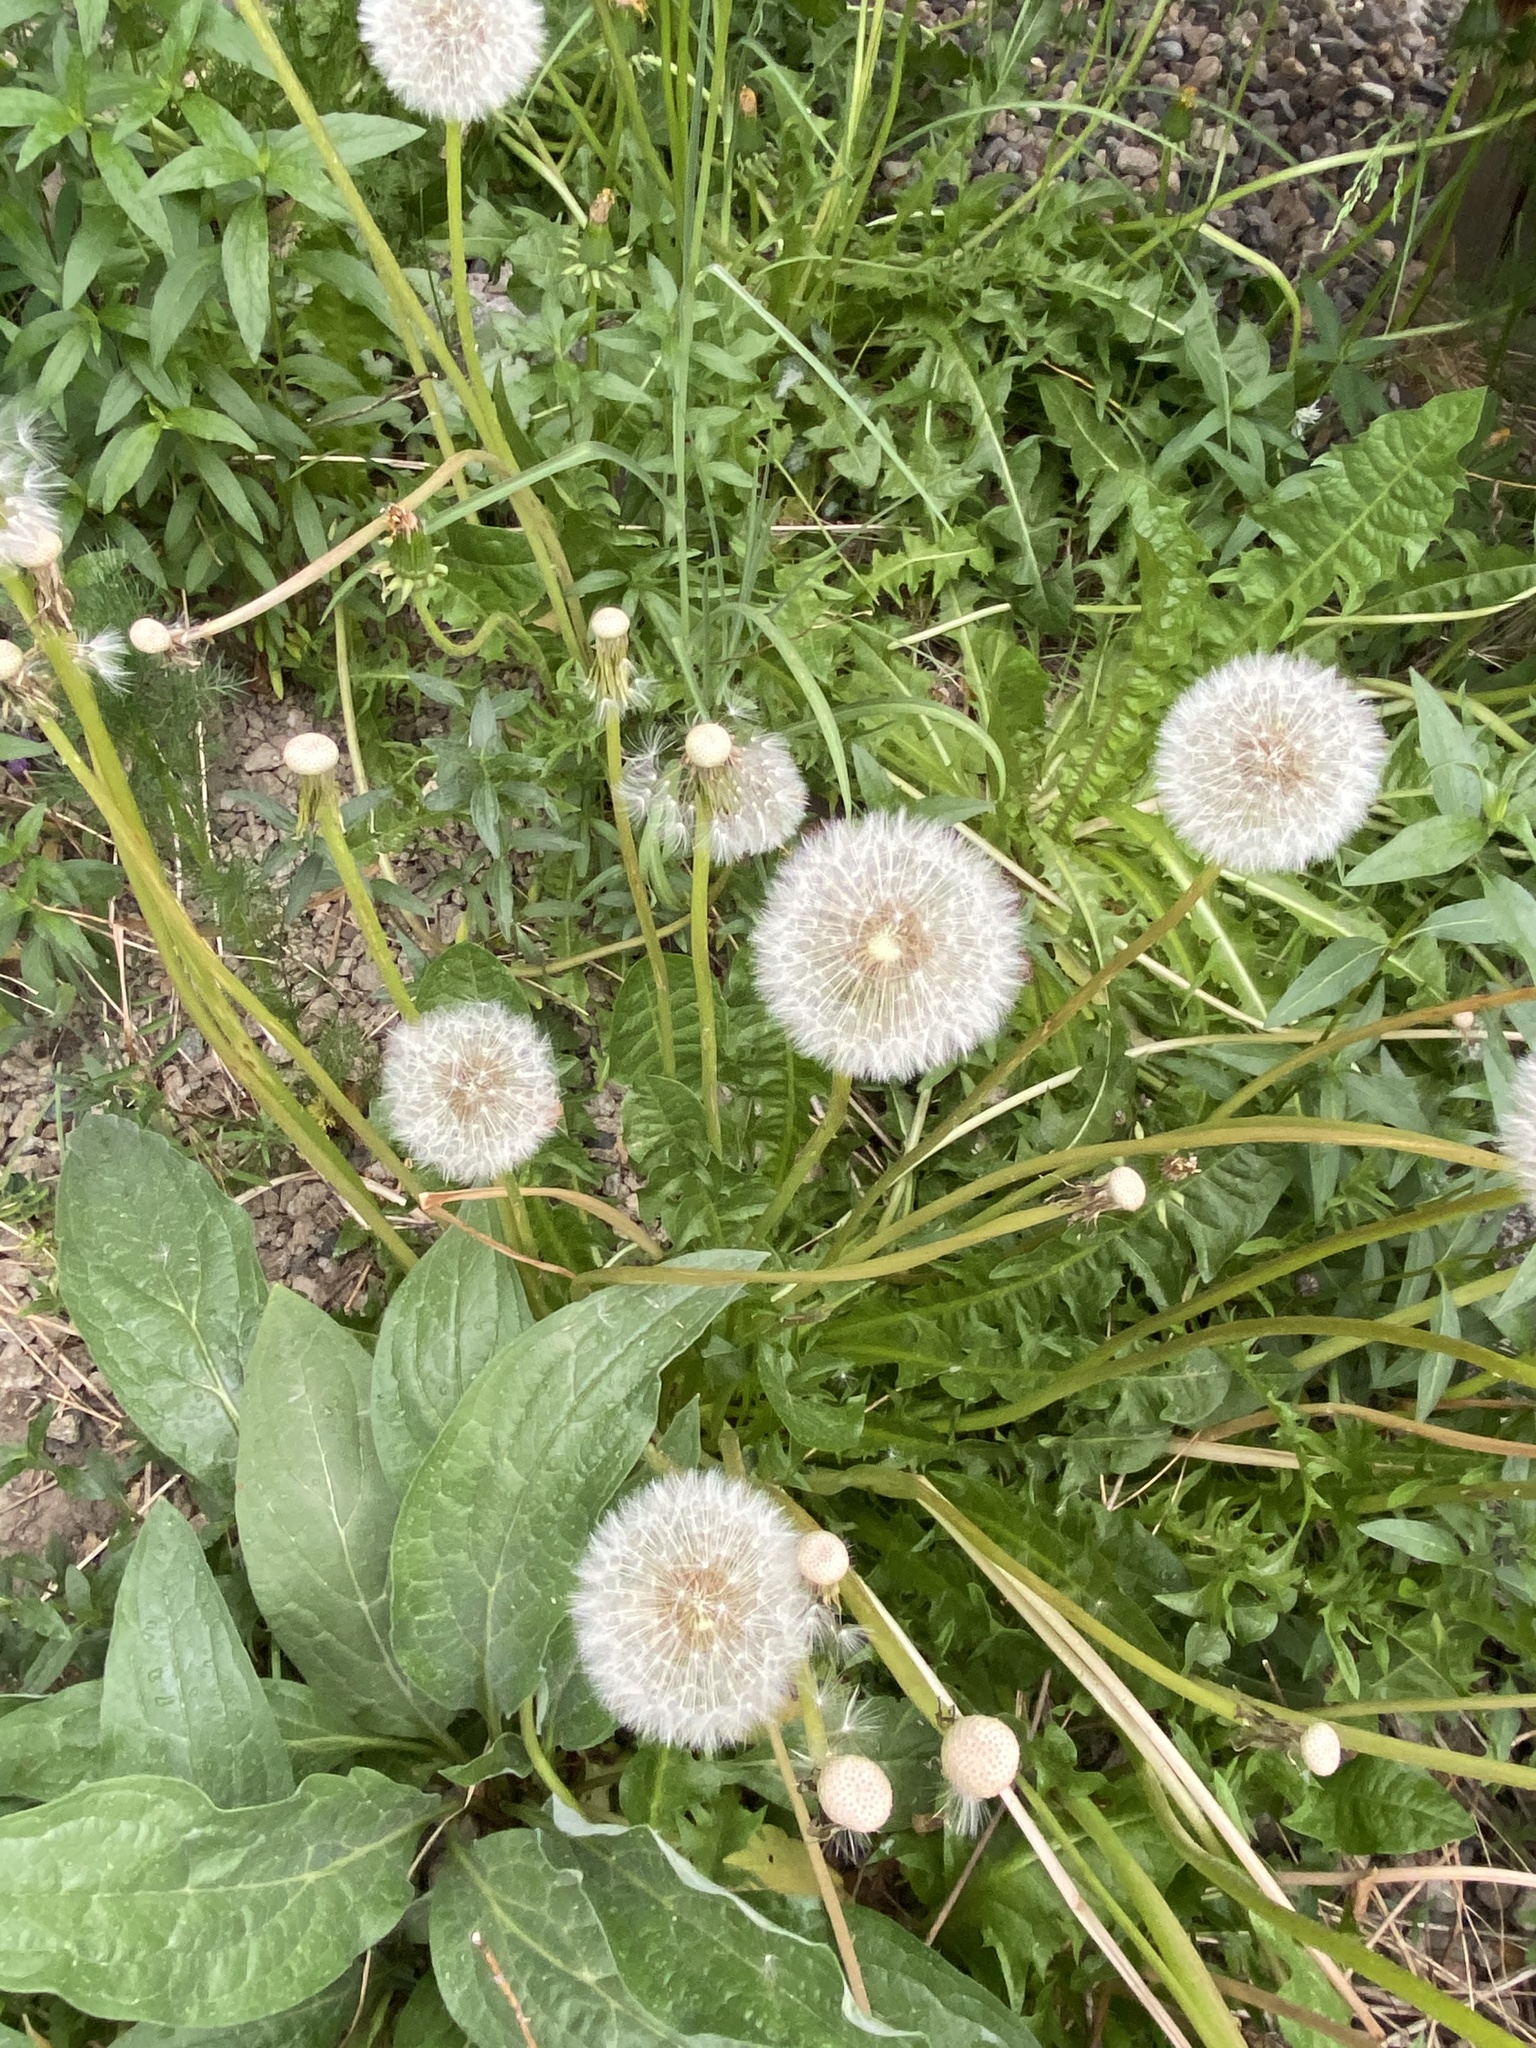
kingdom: Plantae
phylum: Tracheophyta
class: Magnoliopsida
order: Asterales
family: Asteraceae
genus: Taraxacum
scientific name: Taraxacum officinale
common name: Common dandelion
